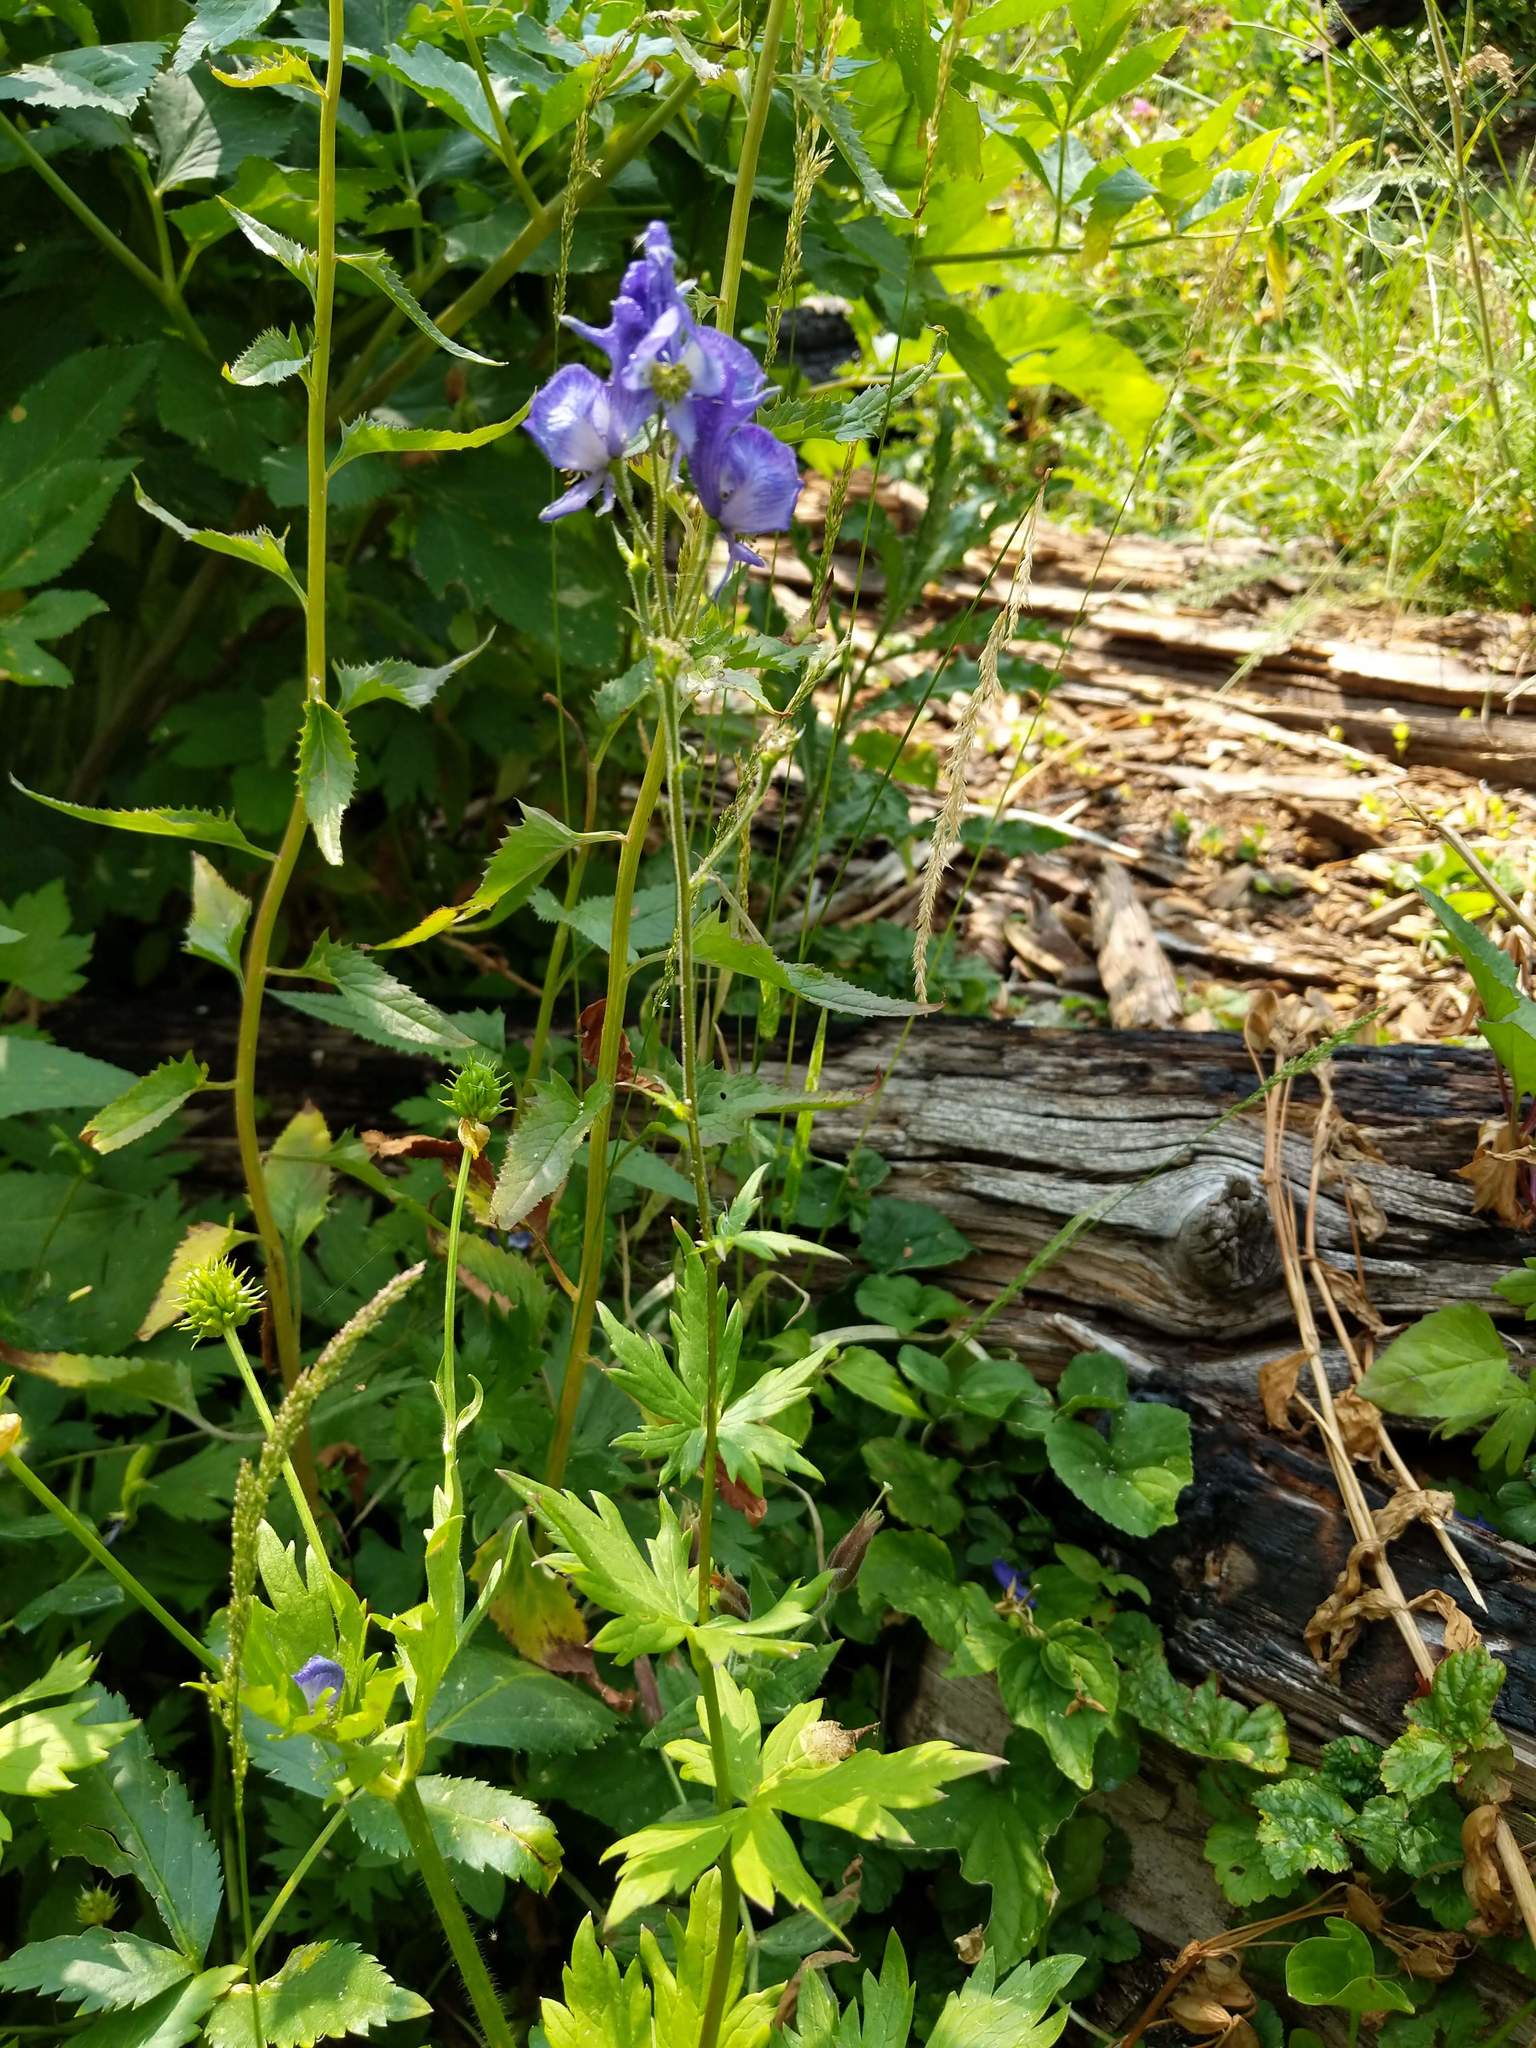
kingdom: Plantae
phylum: Tracheophyta
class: Magnoliopsida
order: Ranunculales
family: Ranunculaceae
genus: Aconitum
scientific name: Aconitum columbianum
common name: Columbia aconite
